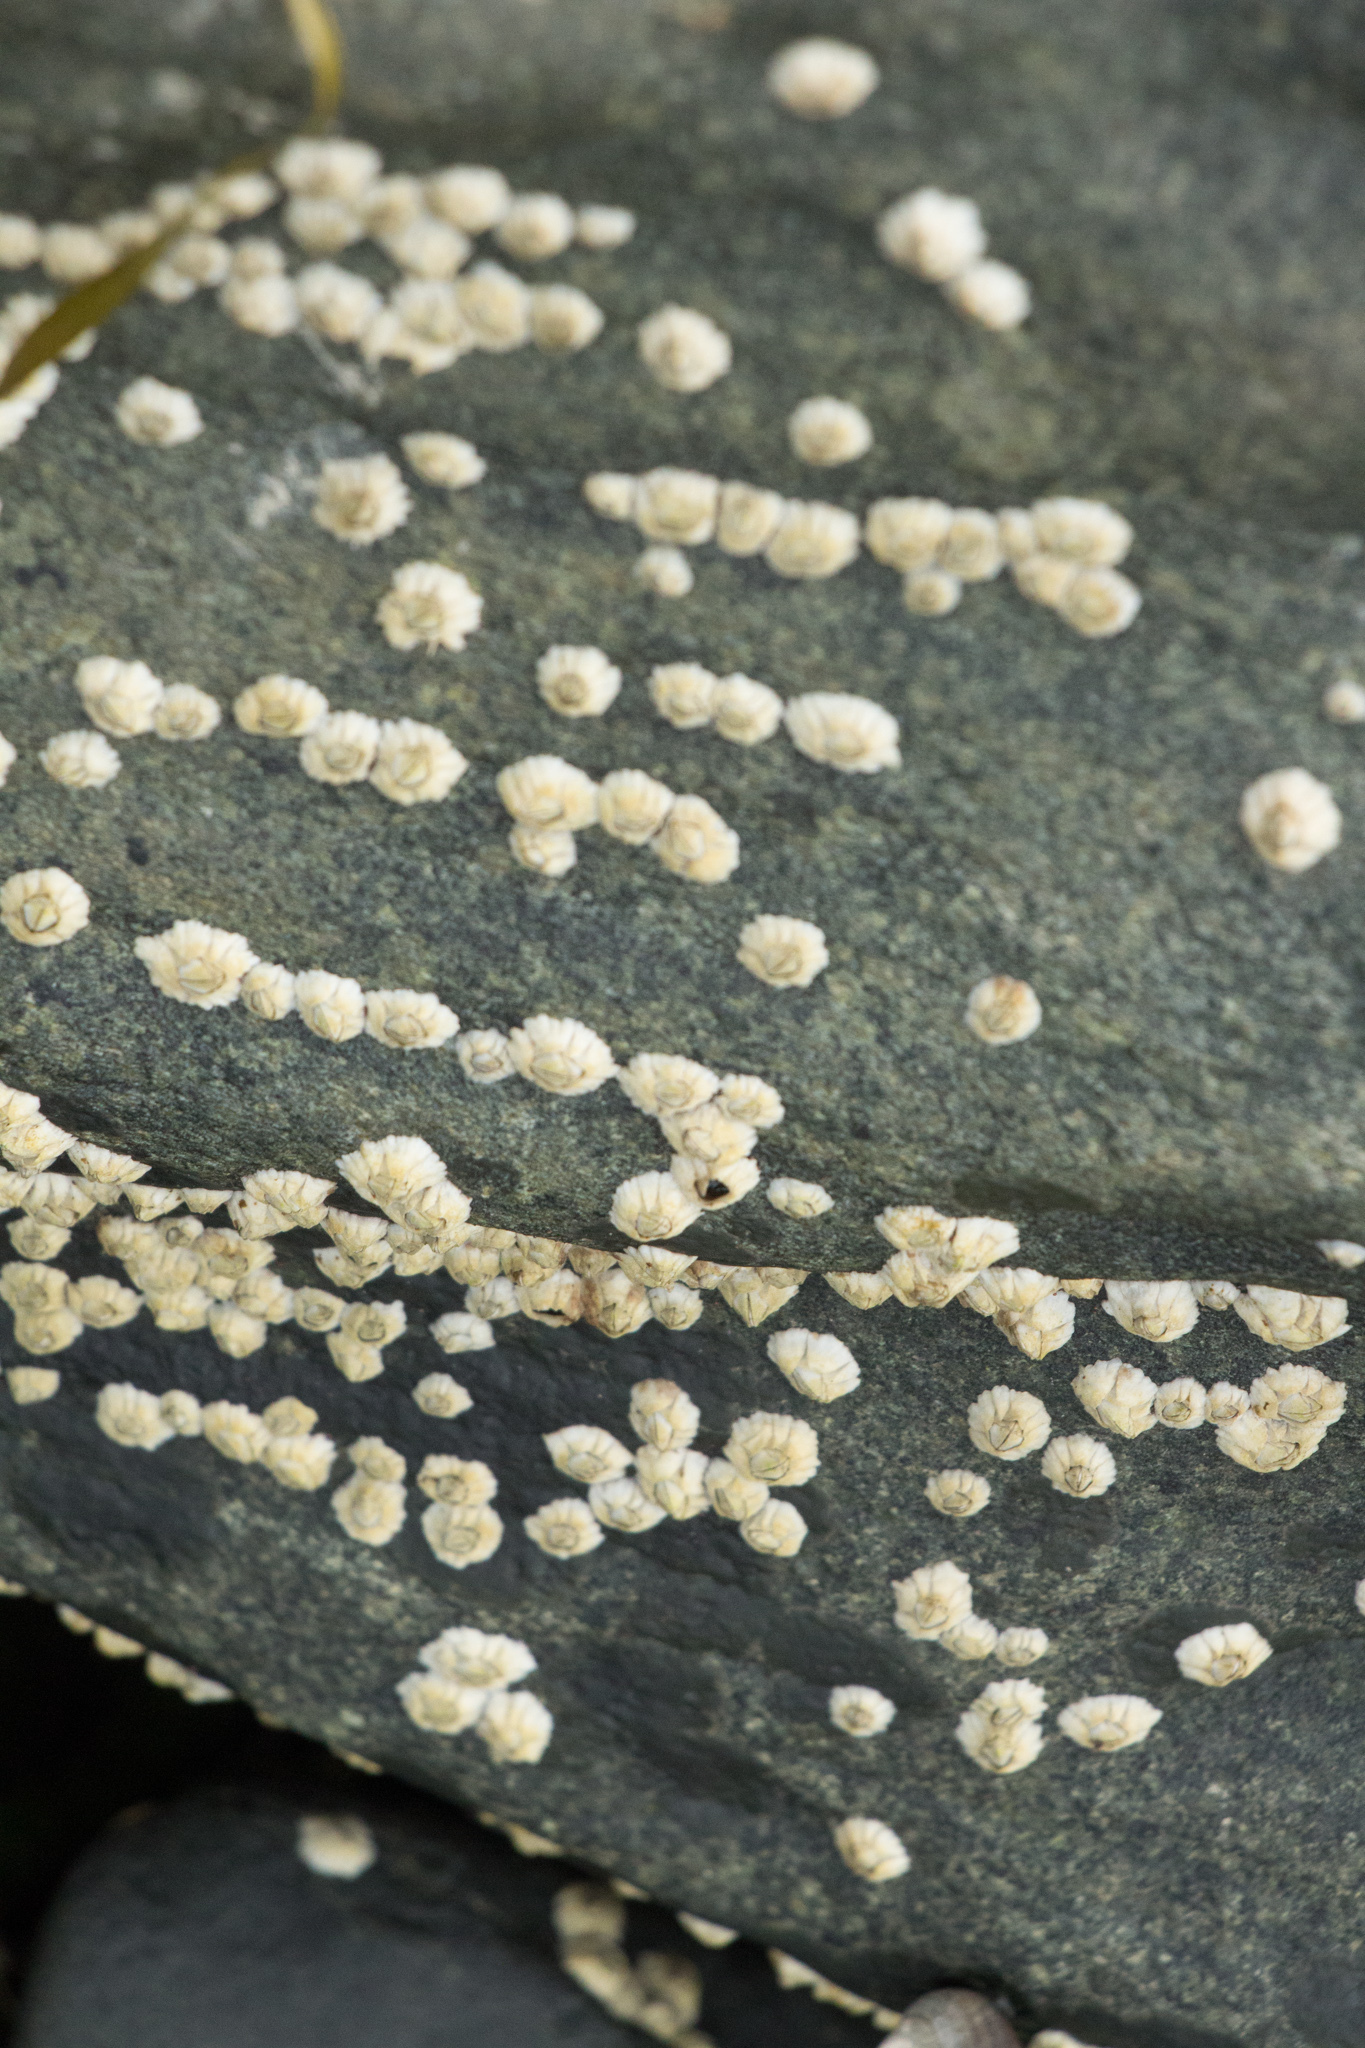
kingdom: Animalia
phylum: Arthropoda
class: Maxillopoda
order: Sessilia
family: Archaeobalanidae
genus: Semibalanus
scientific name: Semibalanus balanoides
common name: Acorn barnacle
